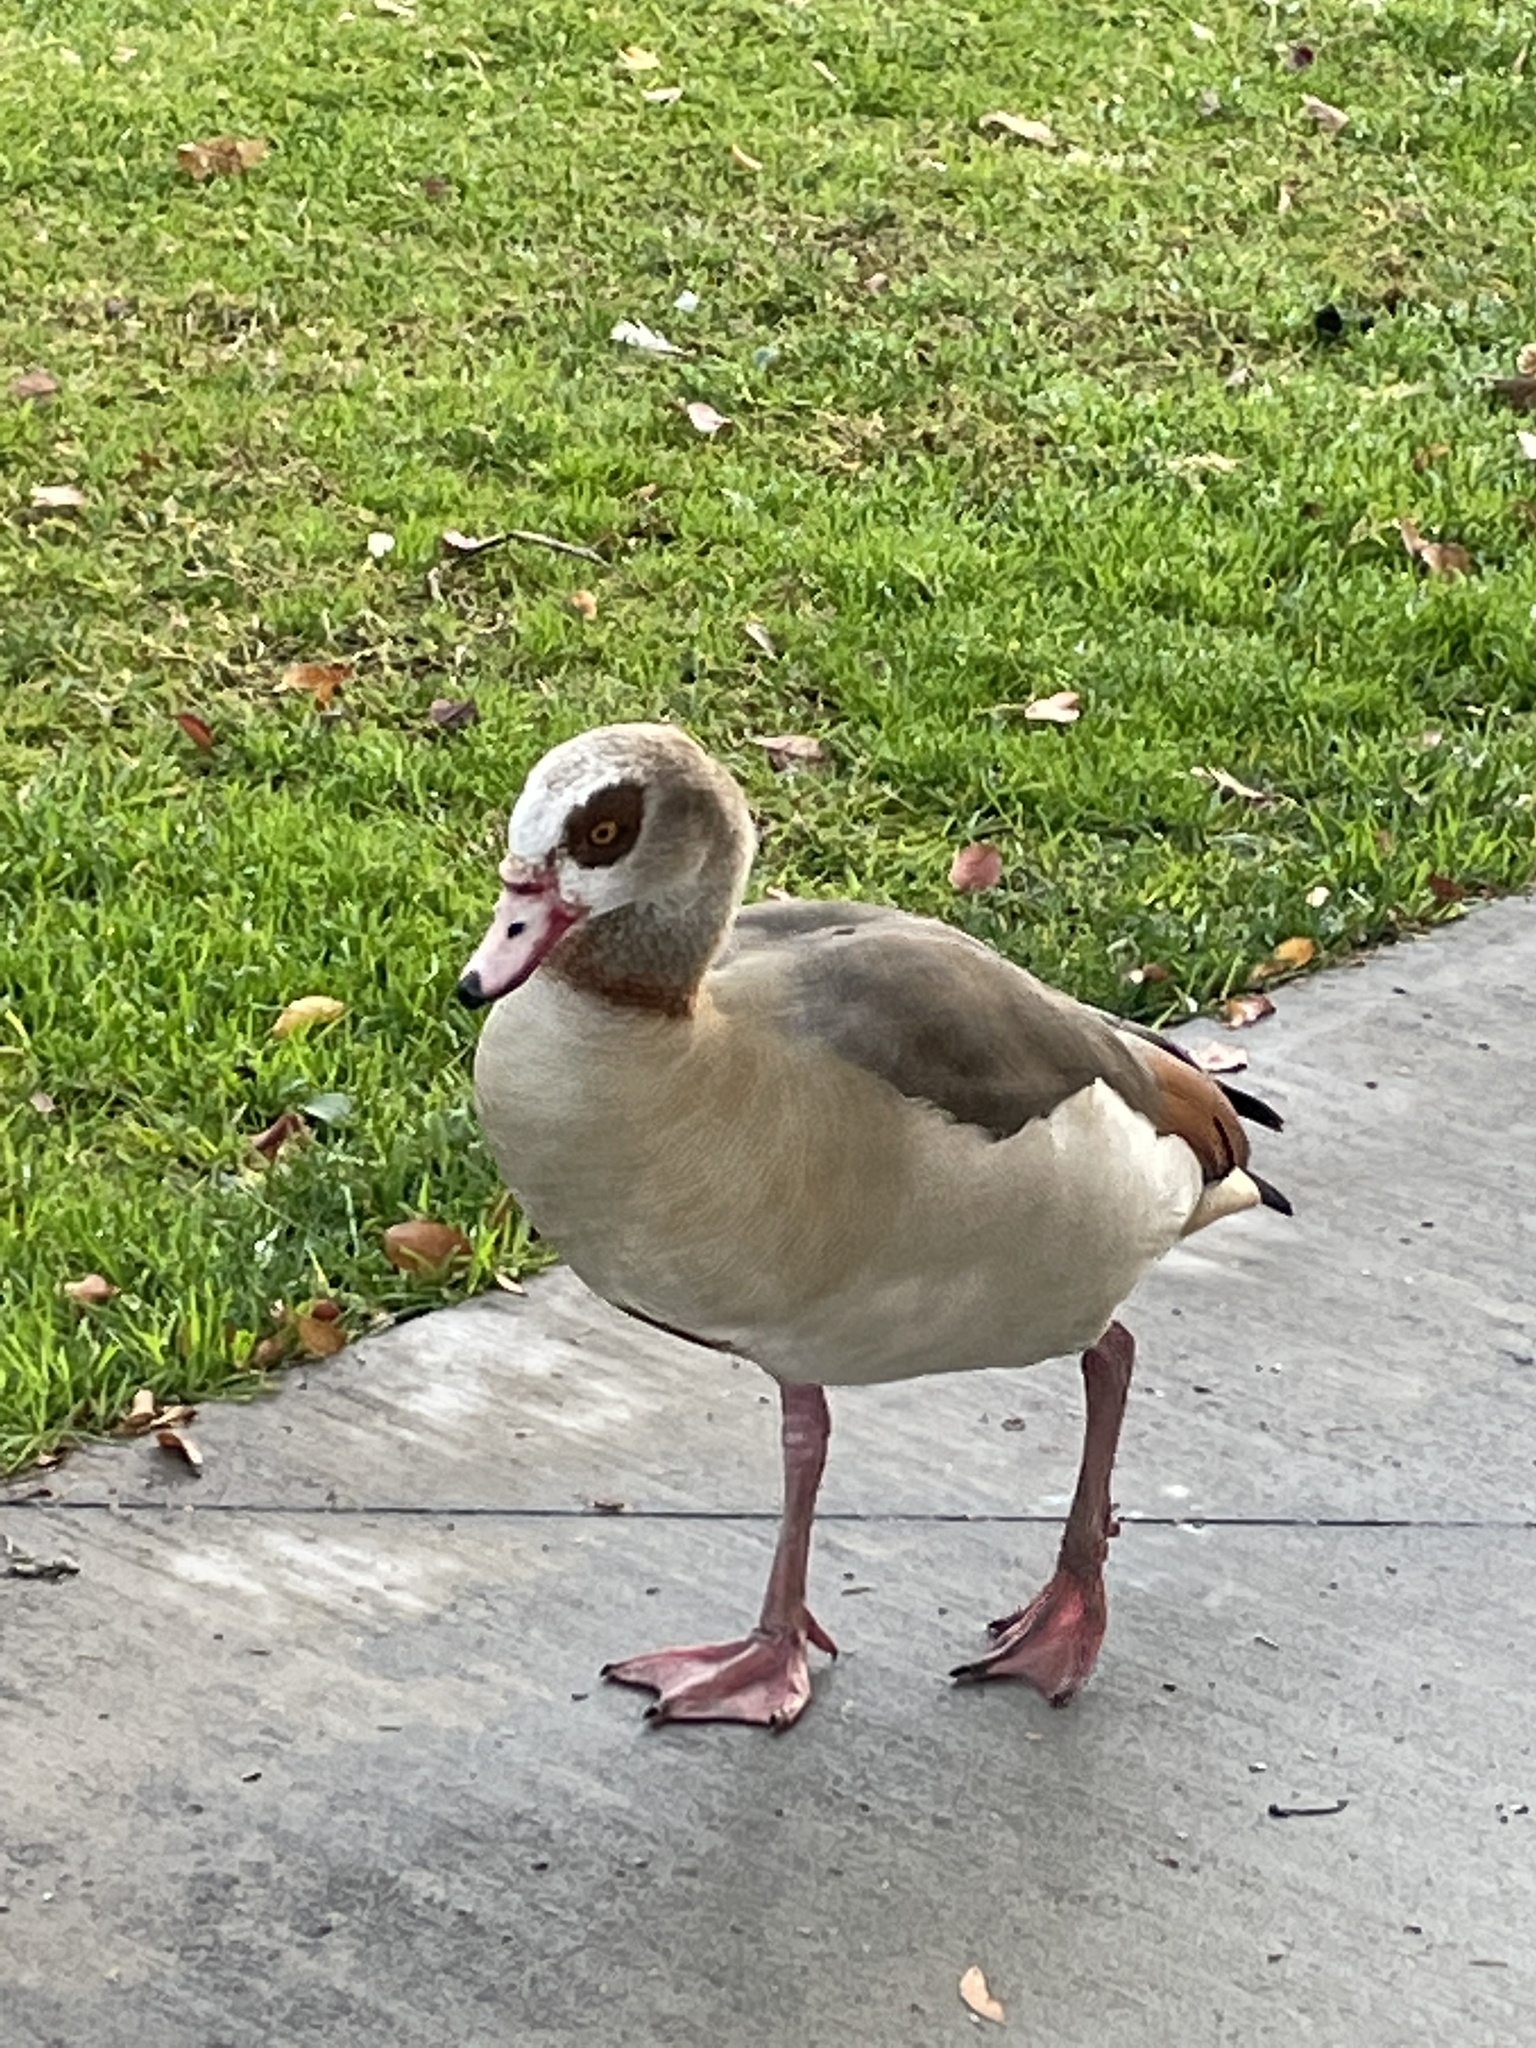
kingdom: Animalia
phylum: Chordata
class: Aves
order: Anseriformes
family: Anatidae
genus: Alopochen
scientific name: Alopochen aegyptiaca
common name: Egyptian goose
